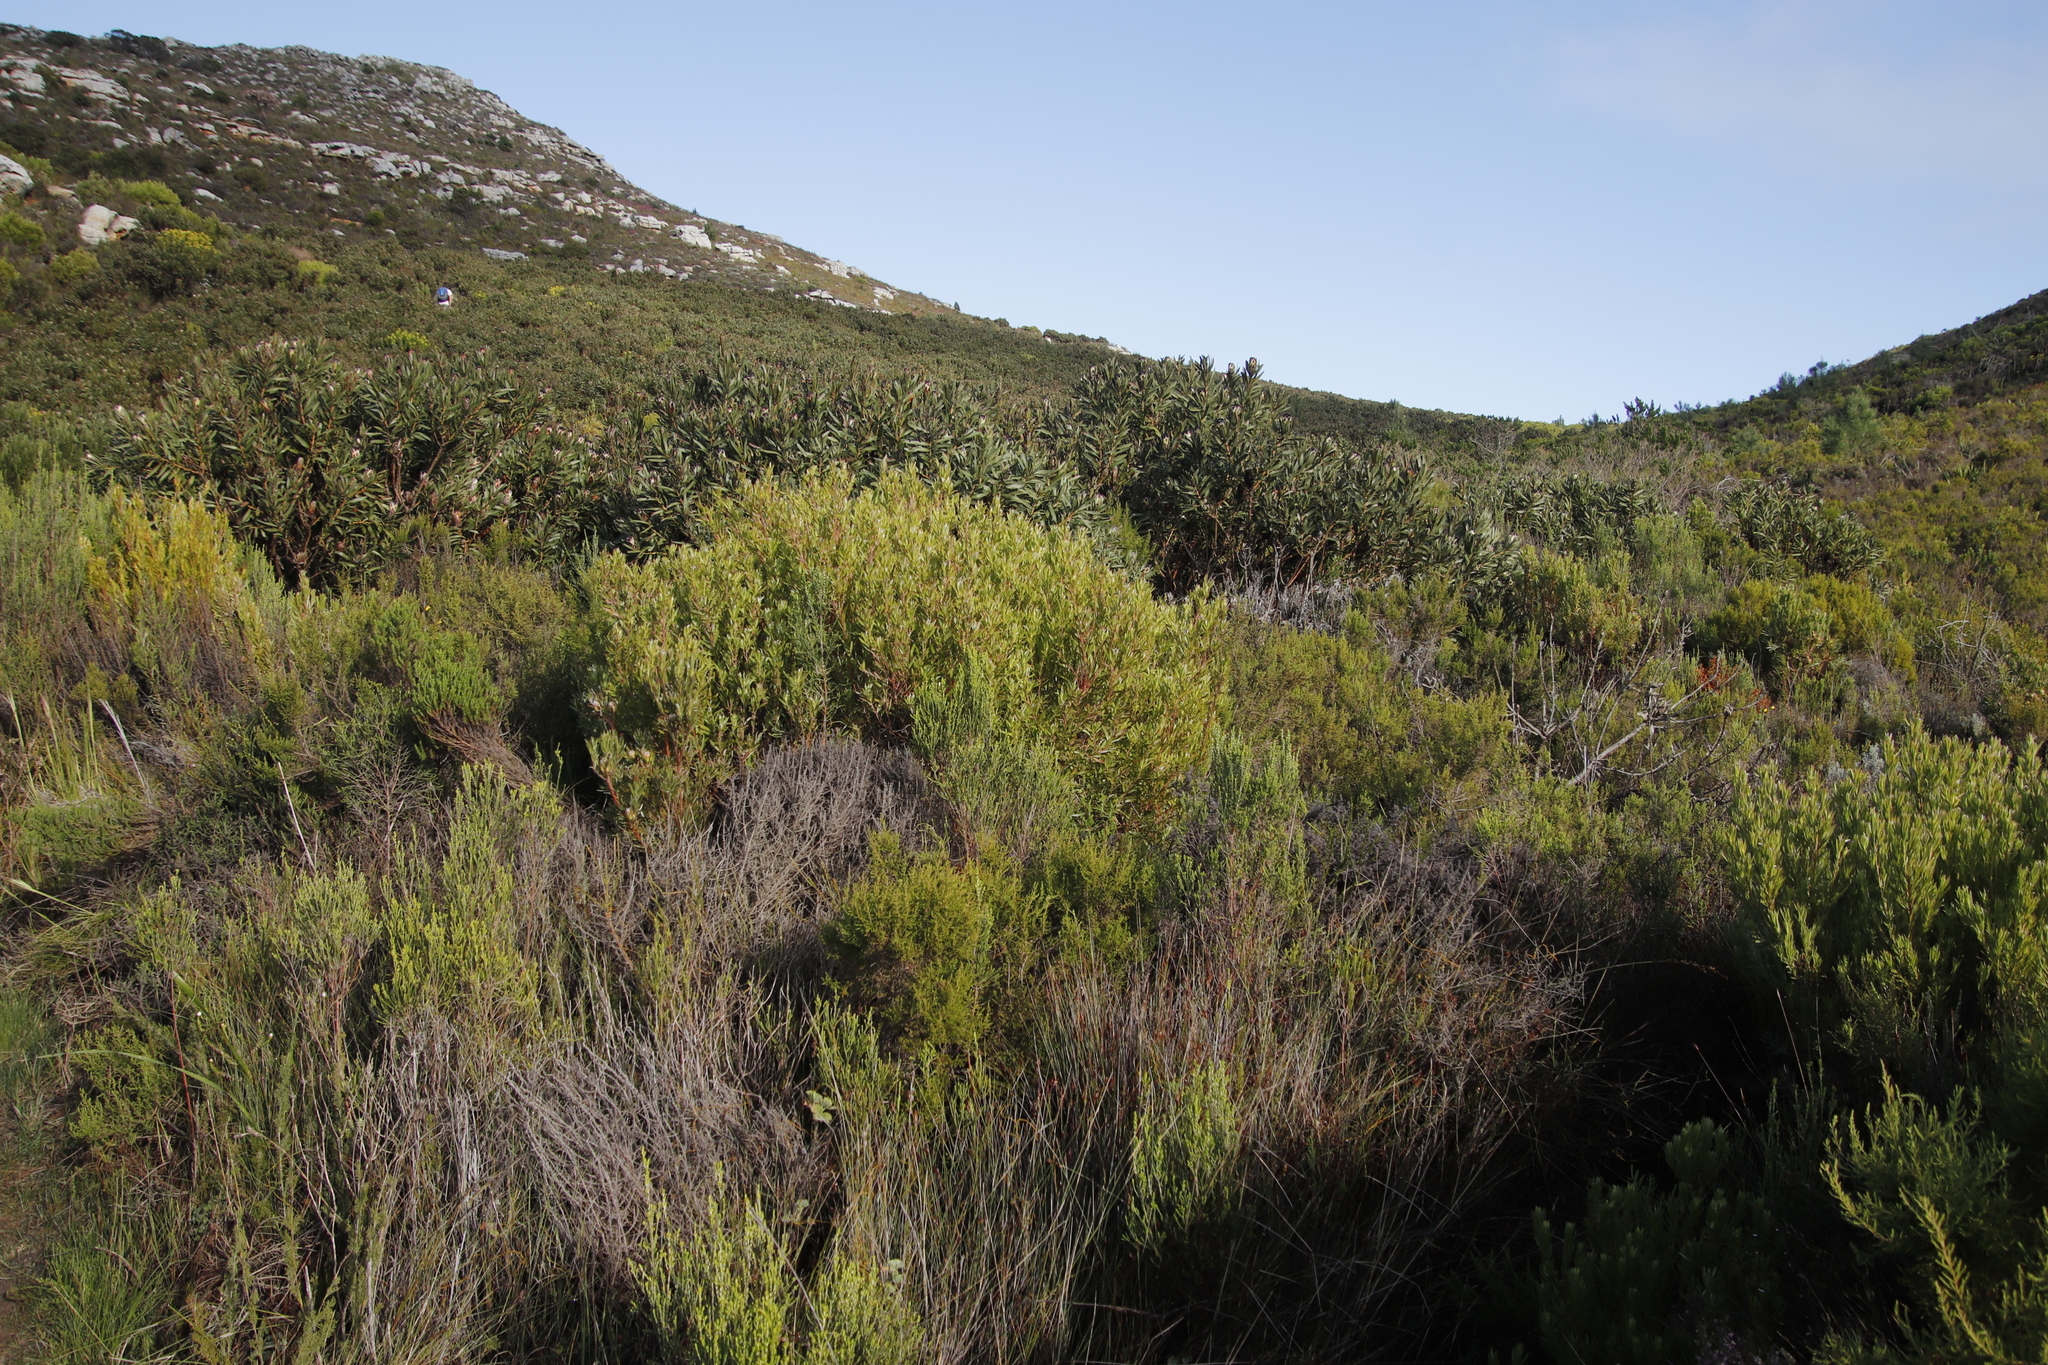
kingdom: Plantae
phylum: Tracheophyta
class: Magnoliopsida
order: Proteales
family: Proteaceae
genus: Leucadendron
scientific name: Leucadendron xanthoconus
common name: Sickle-leaf conebush
